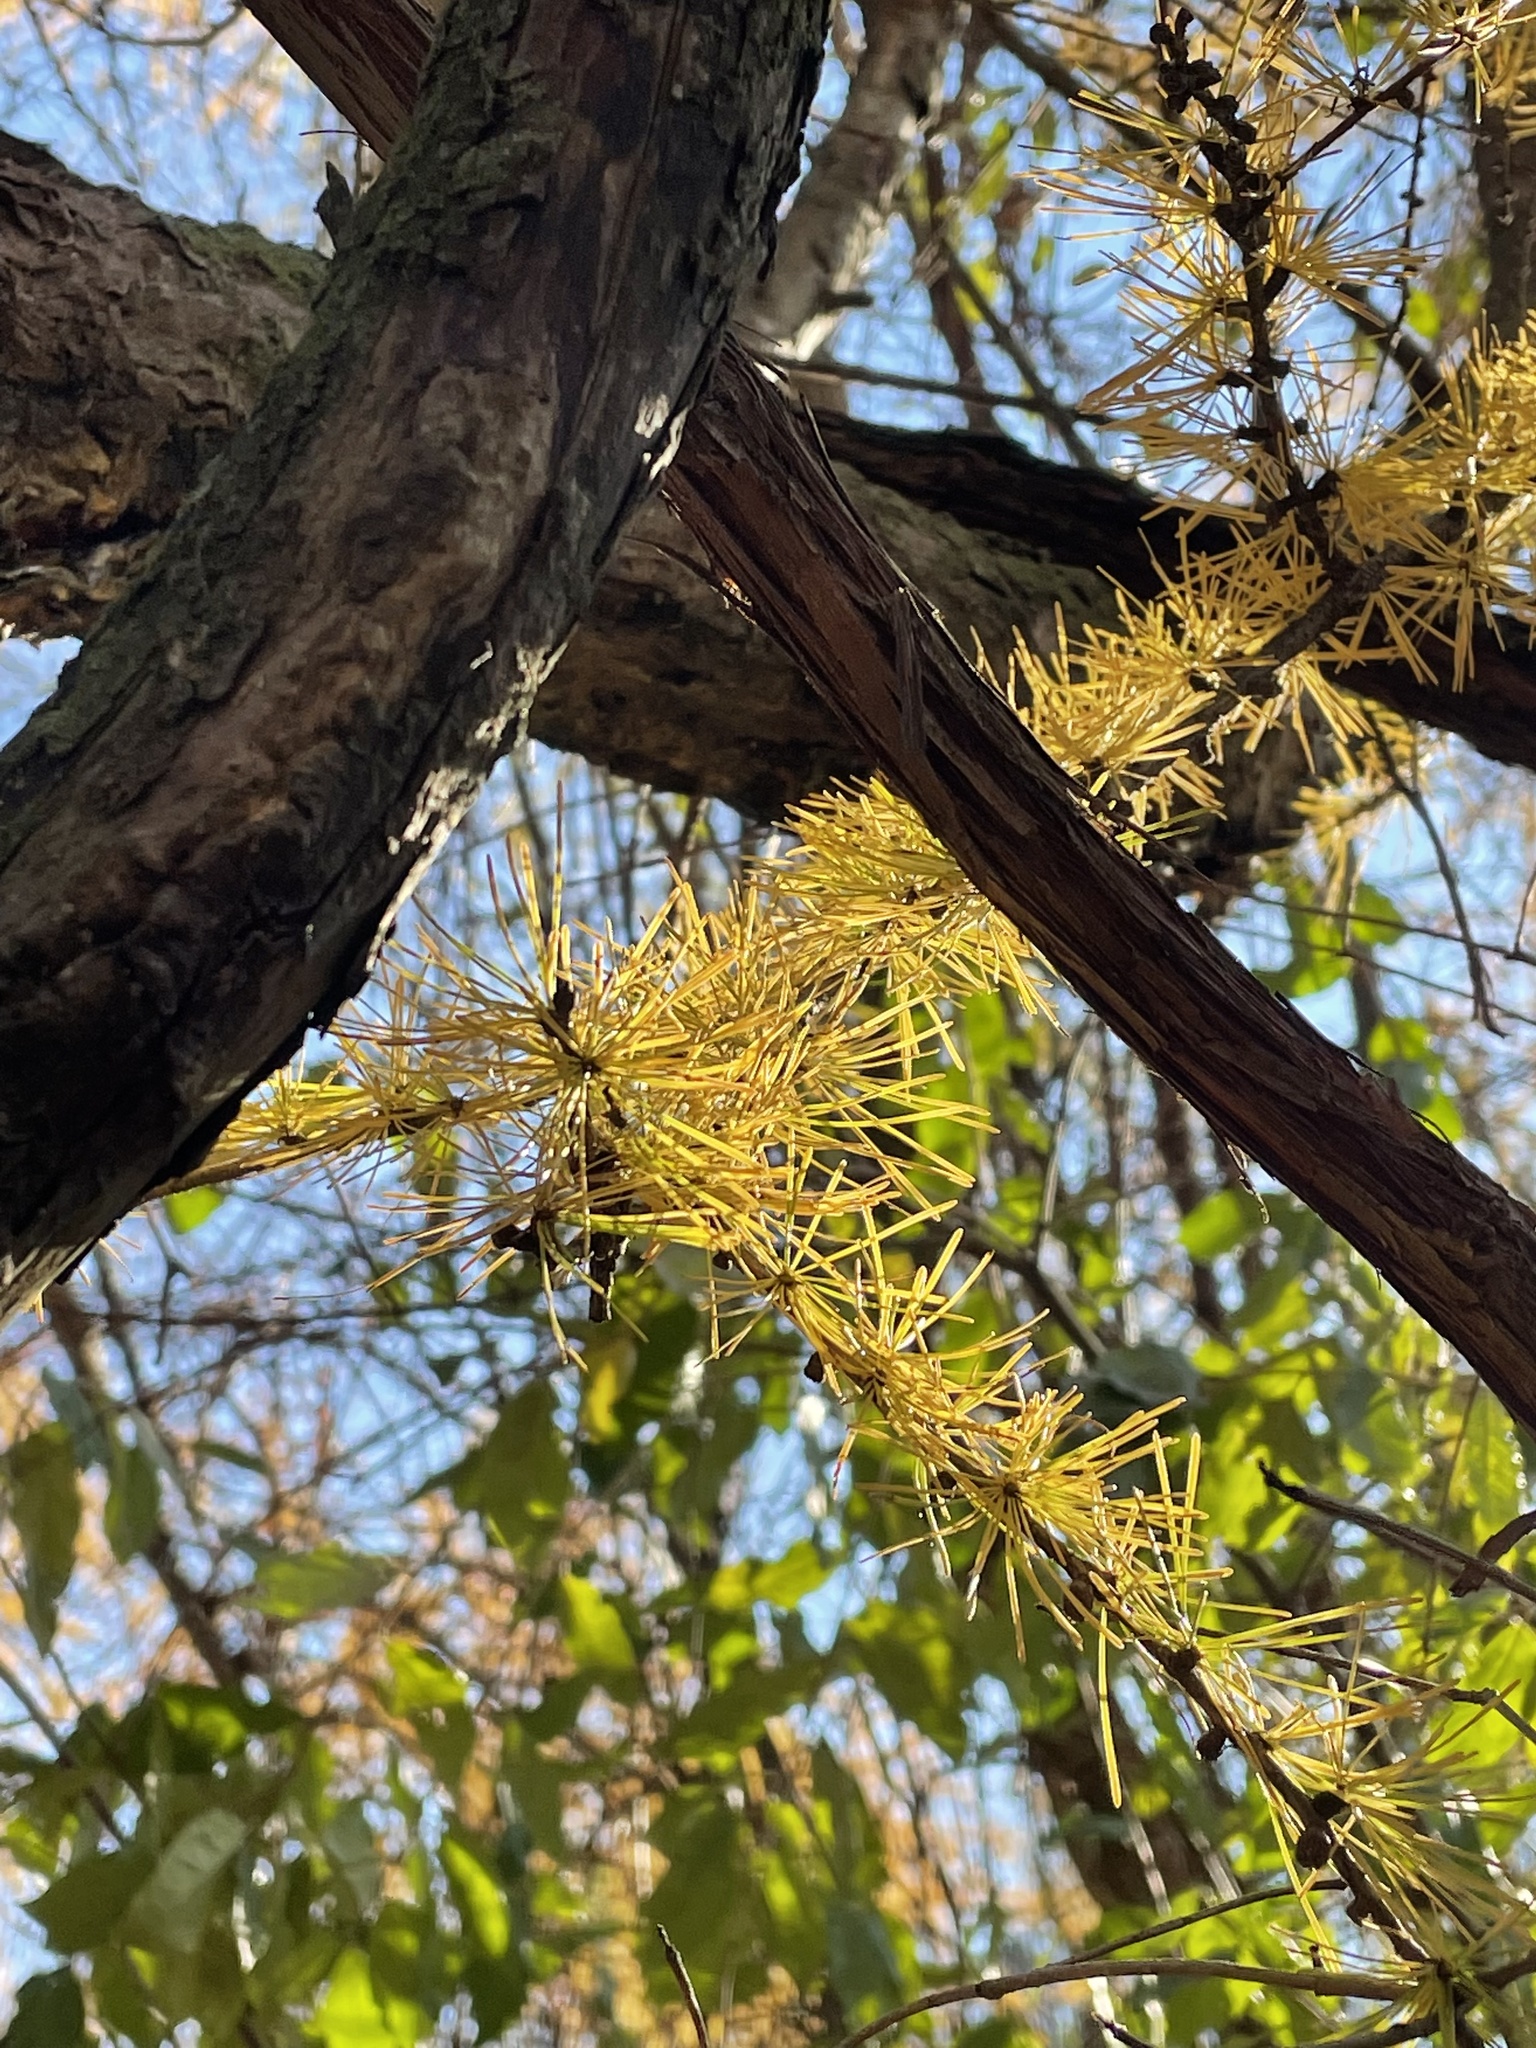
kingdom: Plantae
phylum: Tracheophyta
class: Pinopsida
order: Pinales
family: Pinaceae
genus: Larix
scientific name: Larix laricina
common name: American larch
